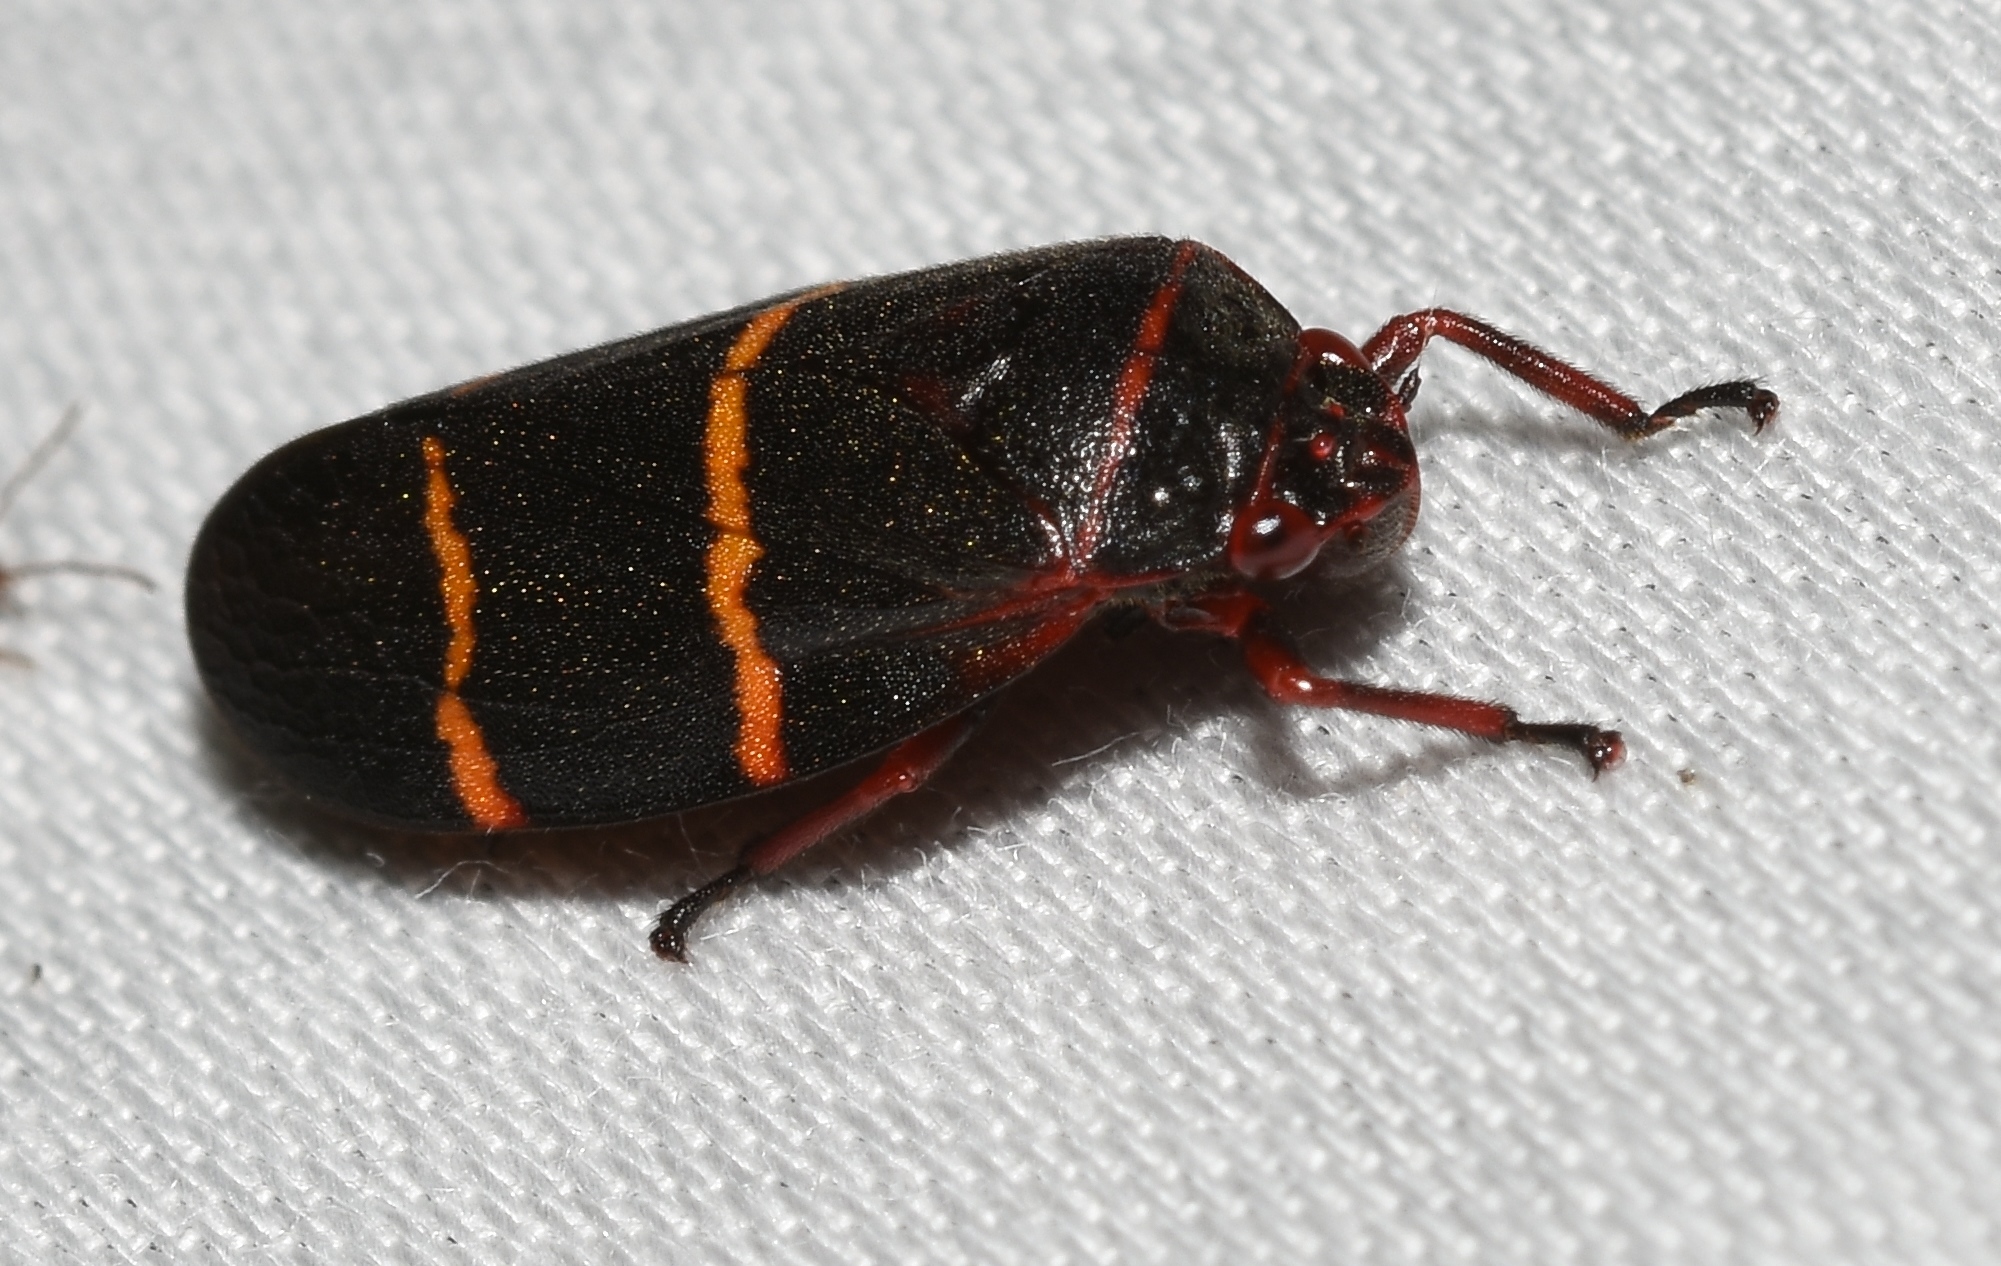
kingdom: Animalia
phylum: Arthropoda
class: Insecta
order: Hemiptera
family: Cercopidae
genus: Prosapia
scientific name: Prosapia bicincta
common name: Twolined spittlebug
